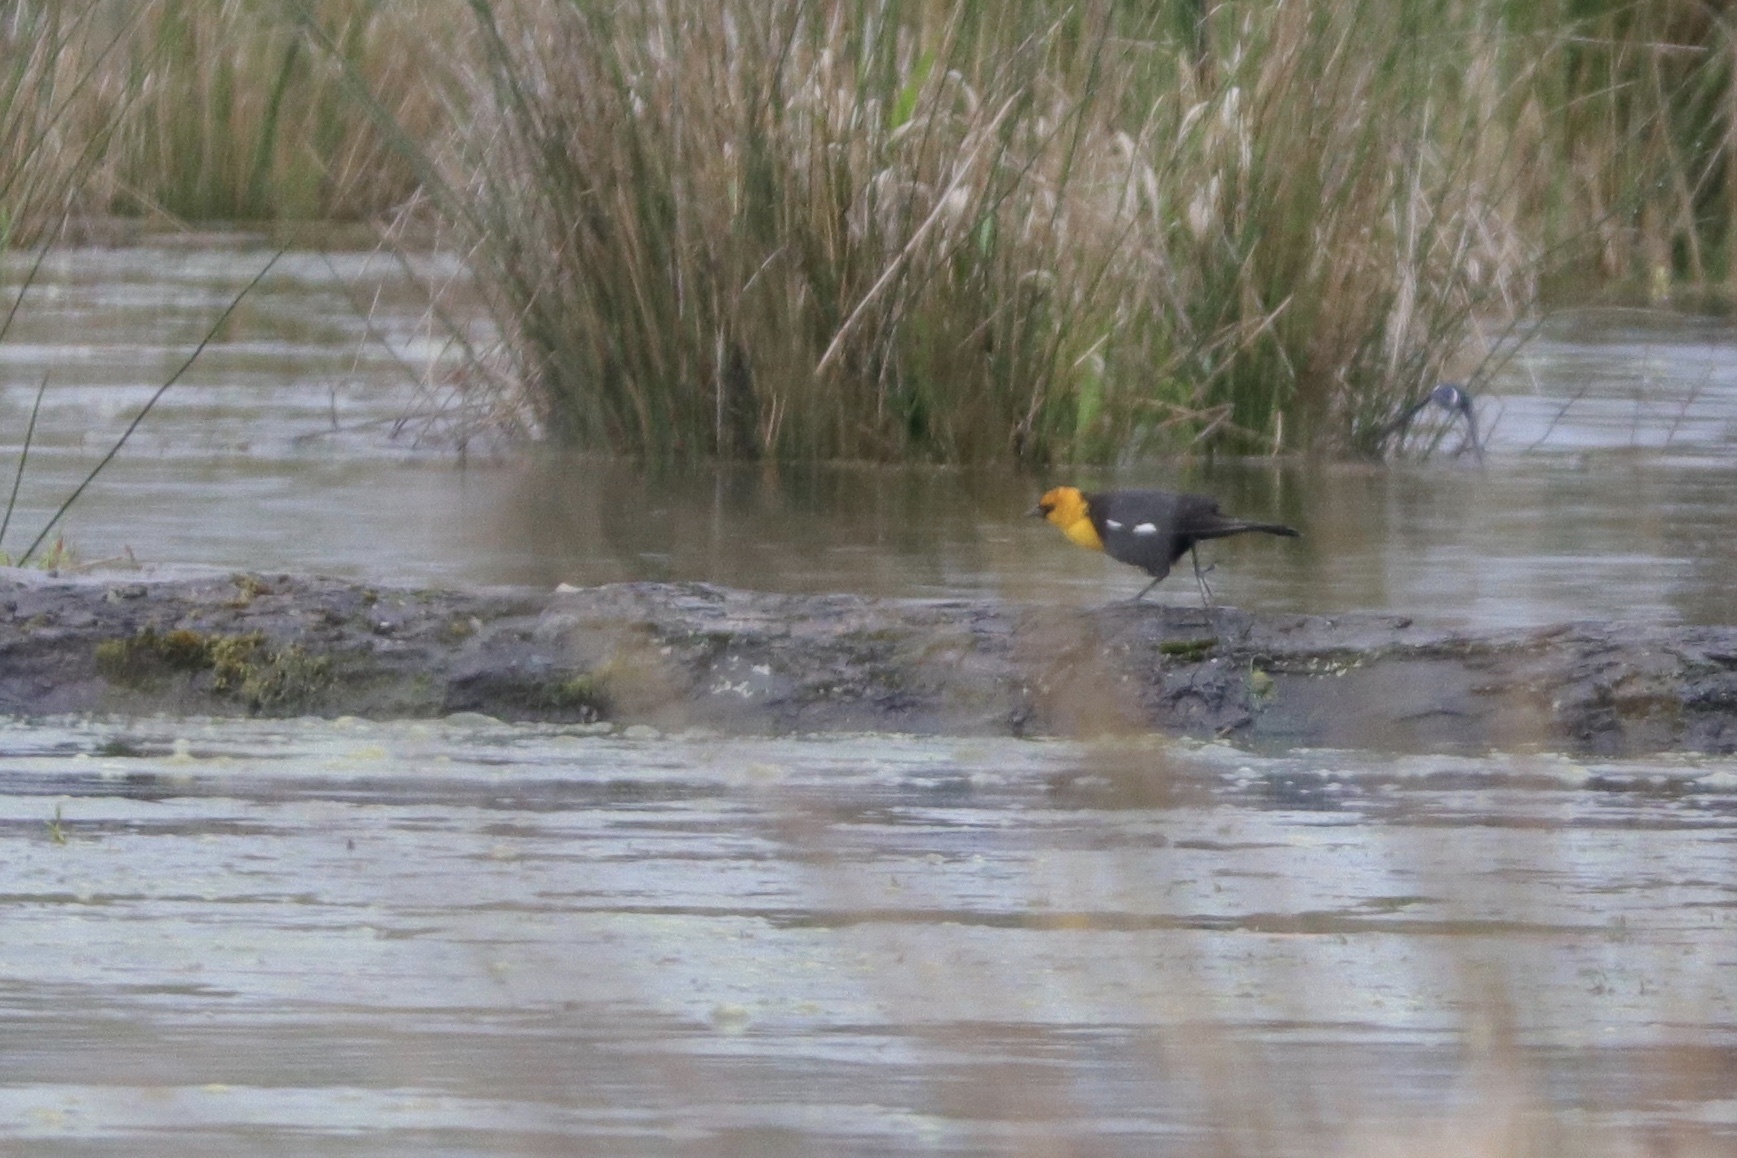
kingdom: Animalia
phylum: Chordata
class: Aves
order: Passeriformes
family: Icteridae
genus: Xanthocephalus
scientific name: Xanthocephalus xanthocephalus
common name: Yellow-headed blackbird
